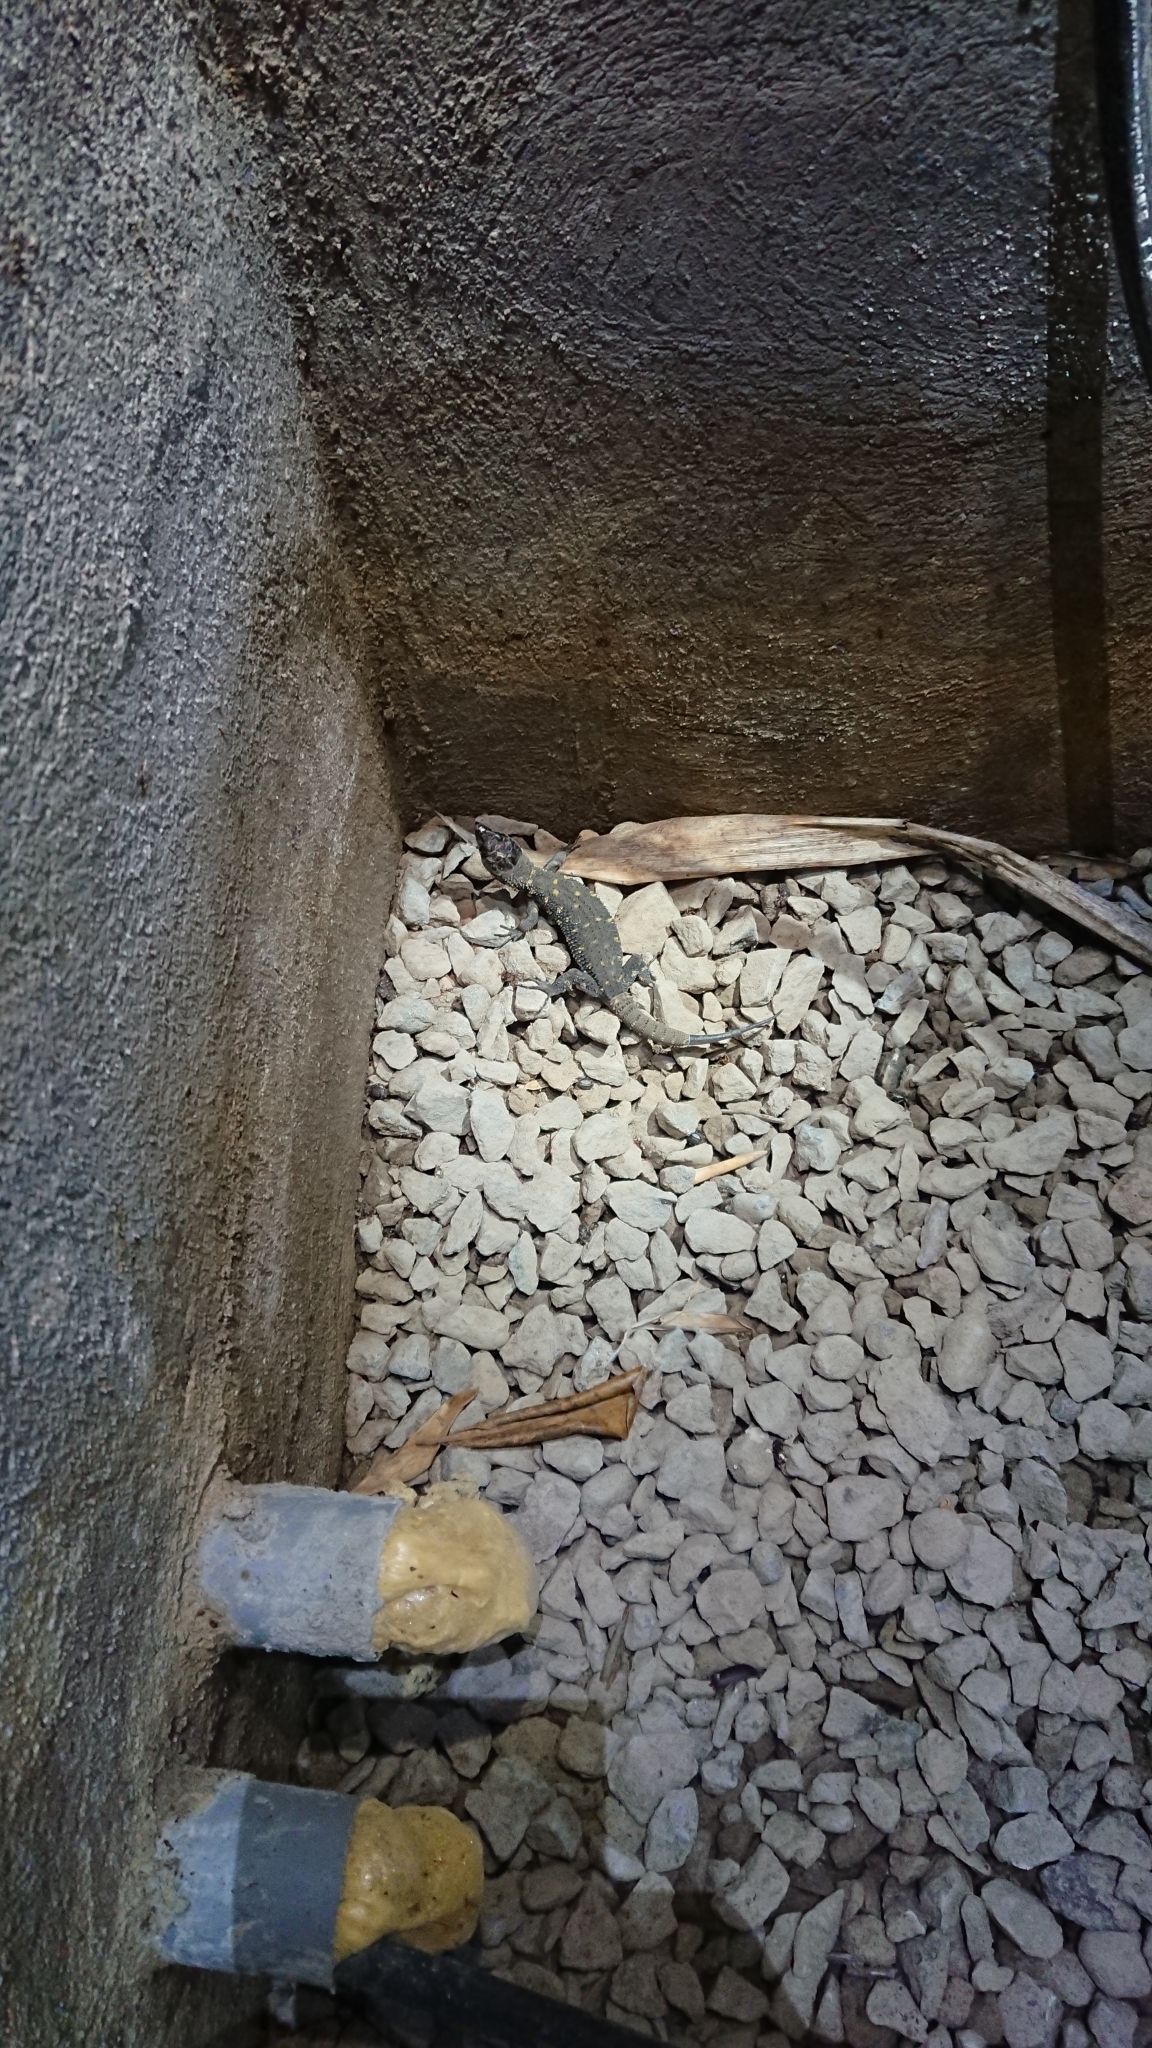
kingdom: Animalia
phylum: Chordata
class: Squamata
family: Xantusiidae
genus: Lepidophyma
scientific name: Lepidophyma reticulatum
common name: Costa rican tropical night lizard
